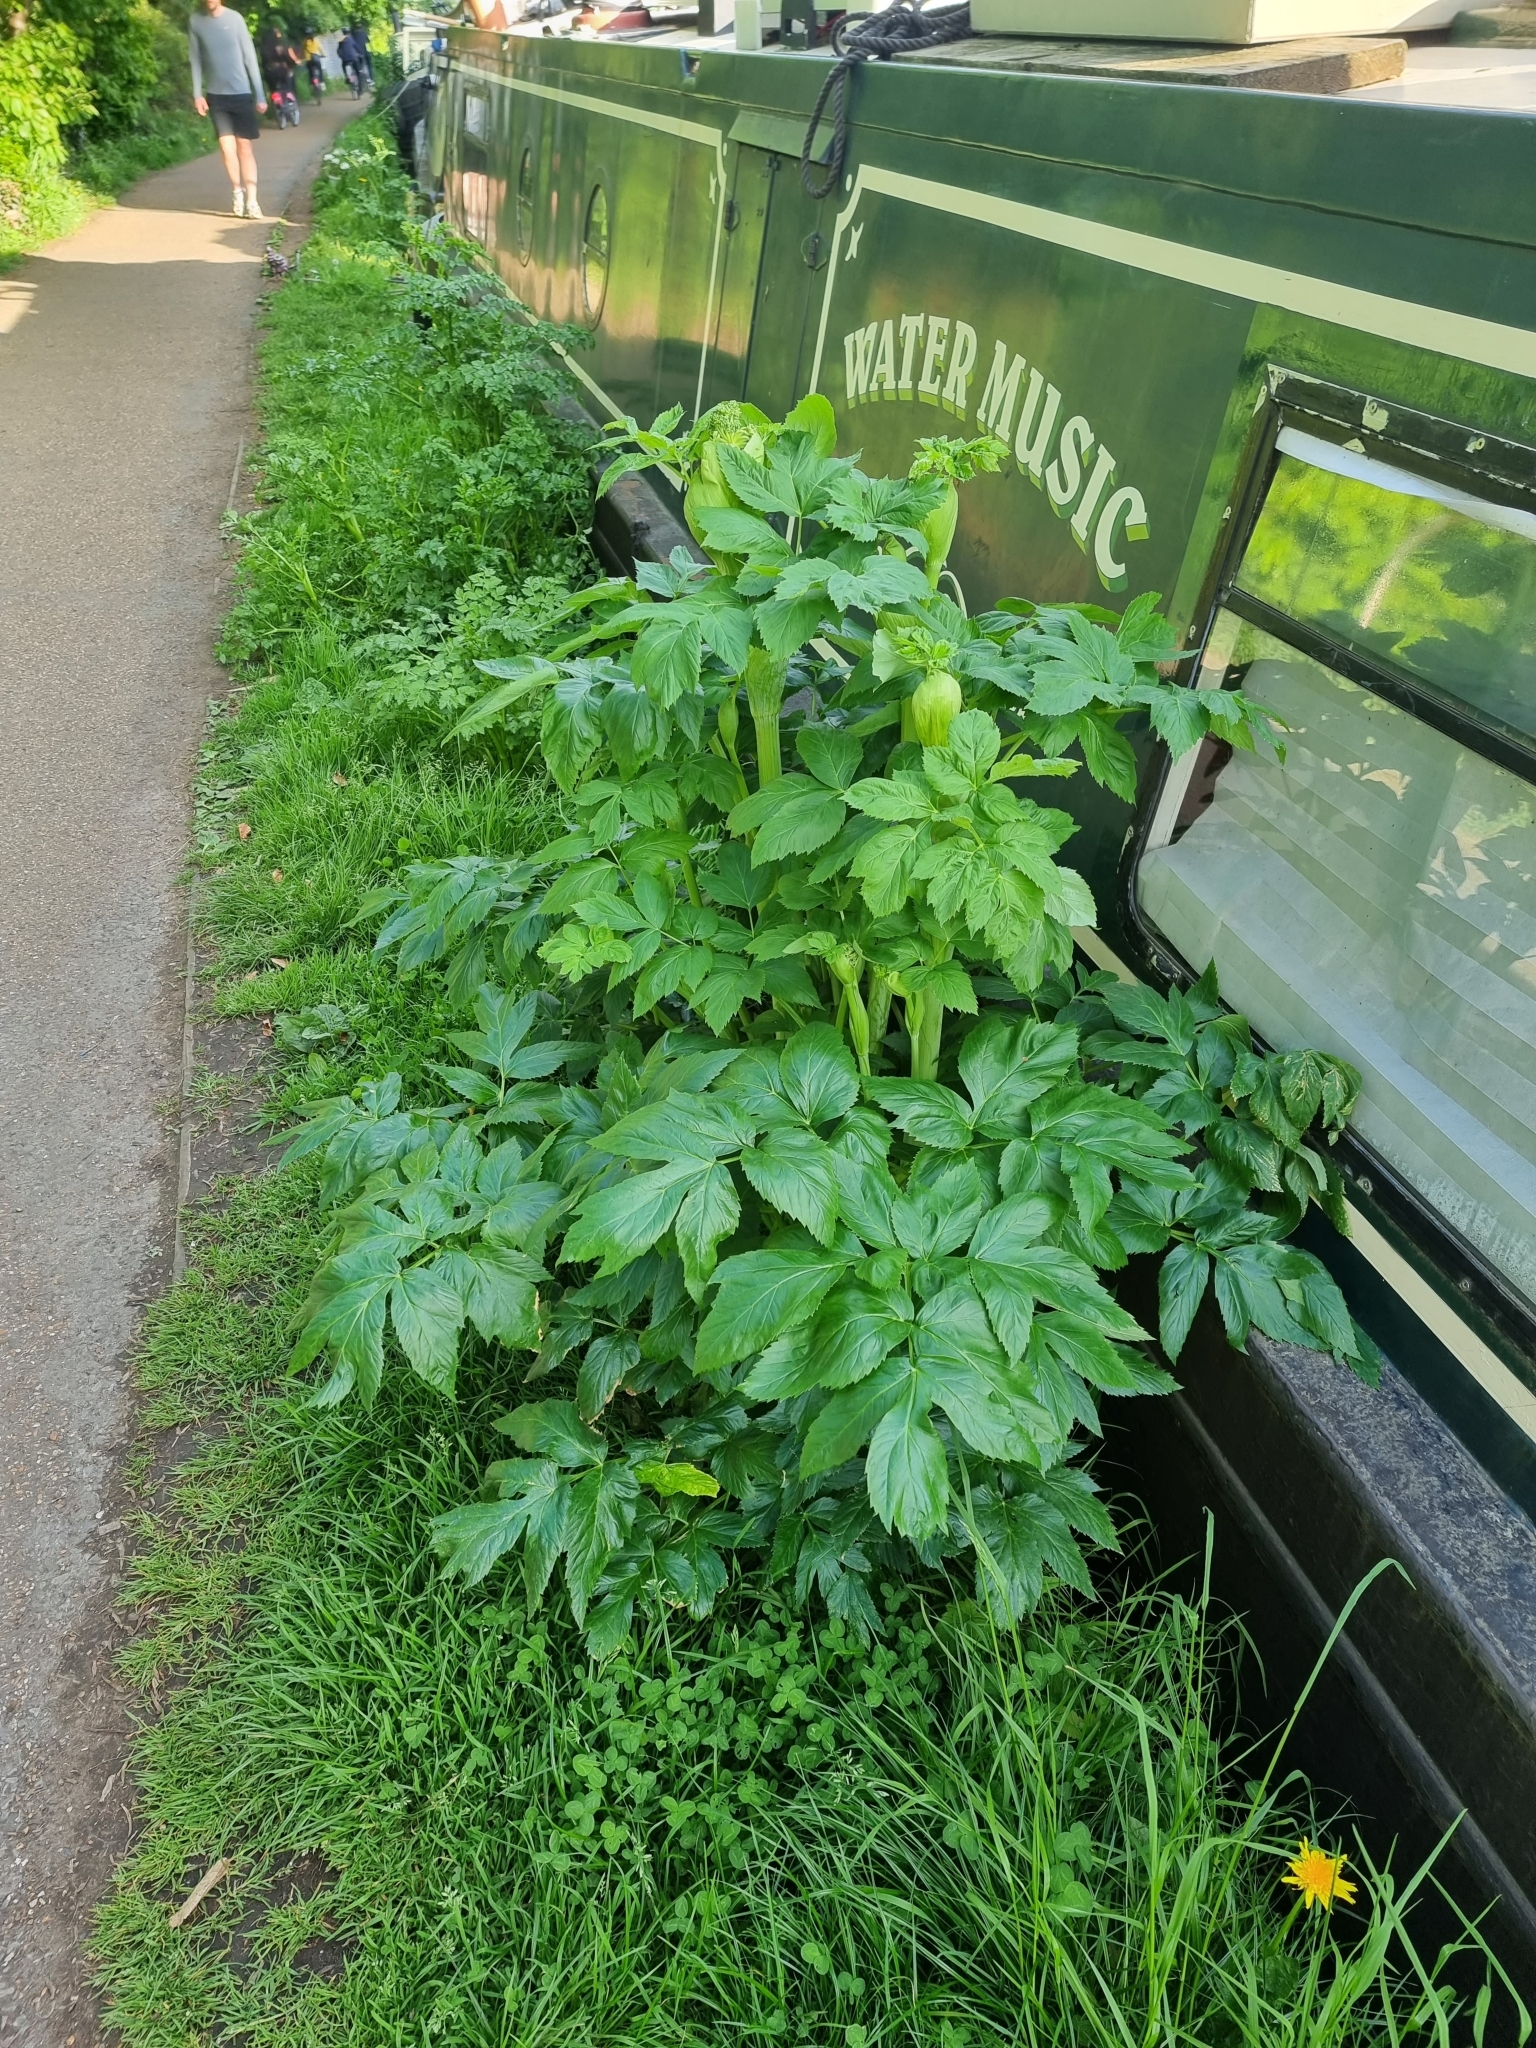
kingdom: Plantae
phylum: Tracheophyta
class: Magnoliopsida
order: Apiales
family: Apiaceae
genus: Angelica
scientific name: Angelica archangelica
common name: Garden angelica
